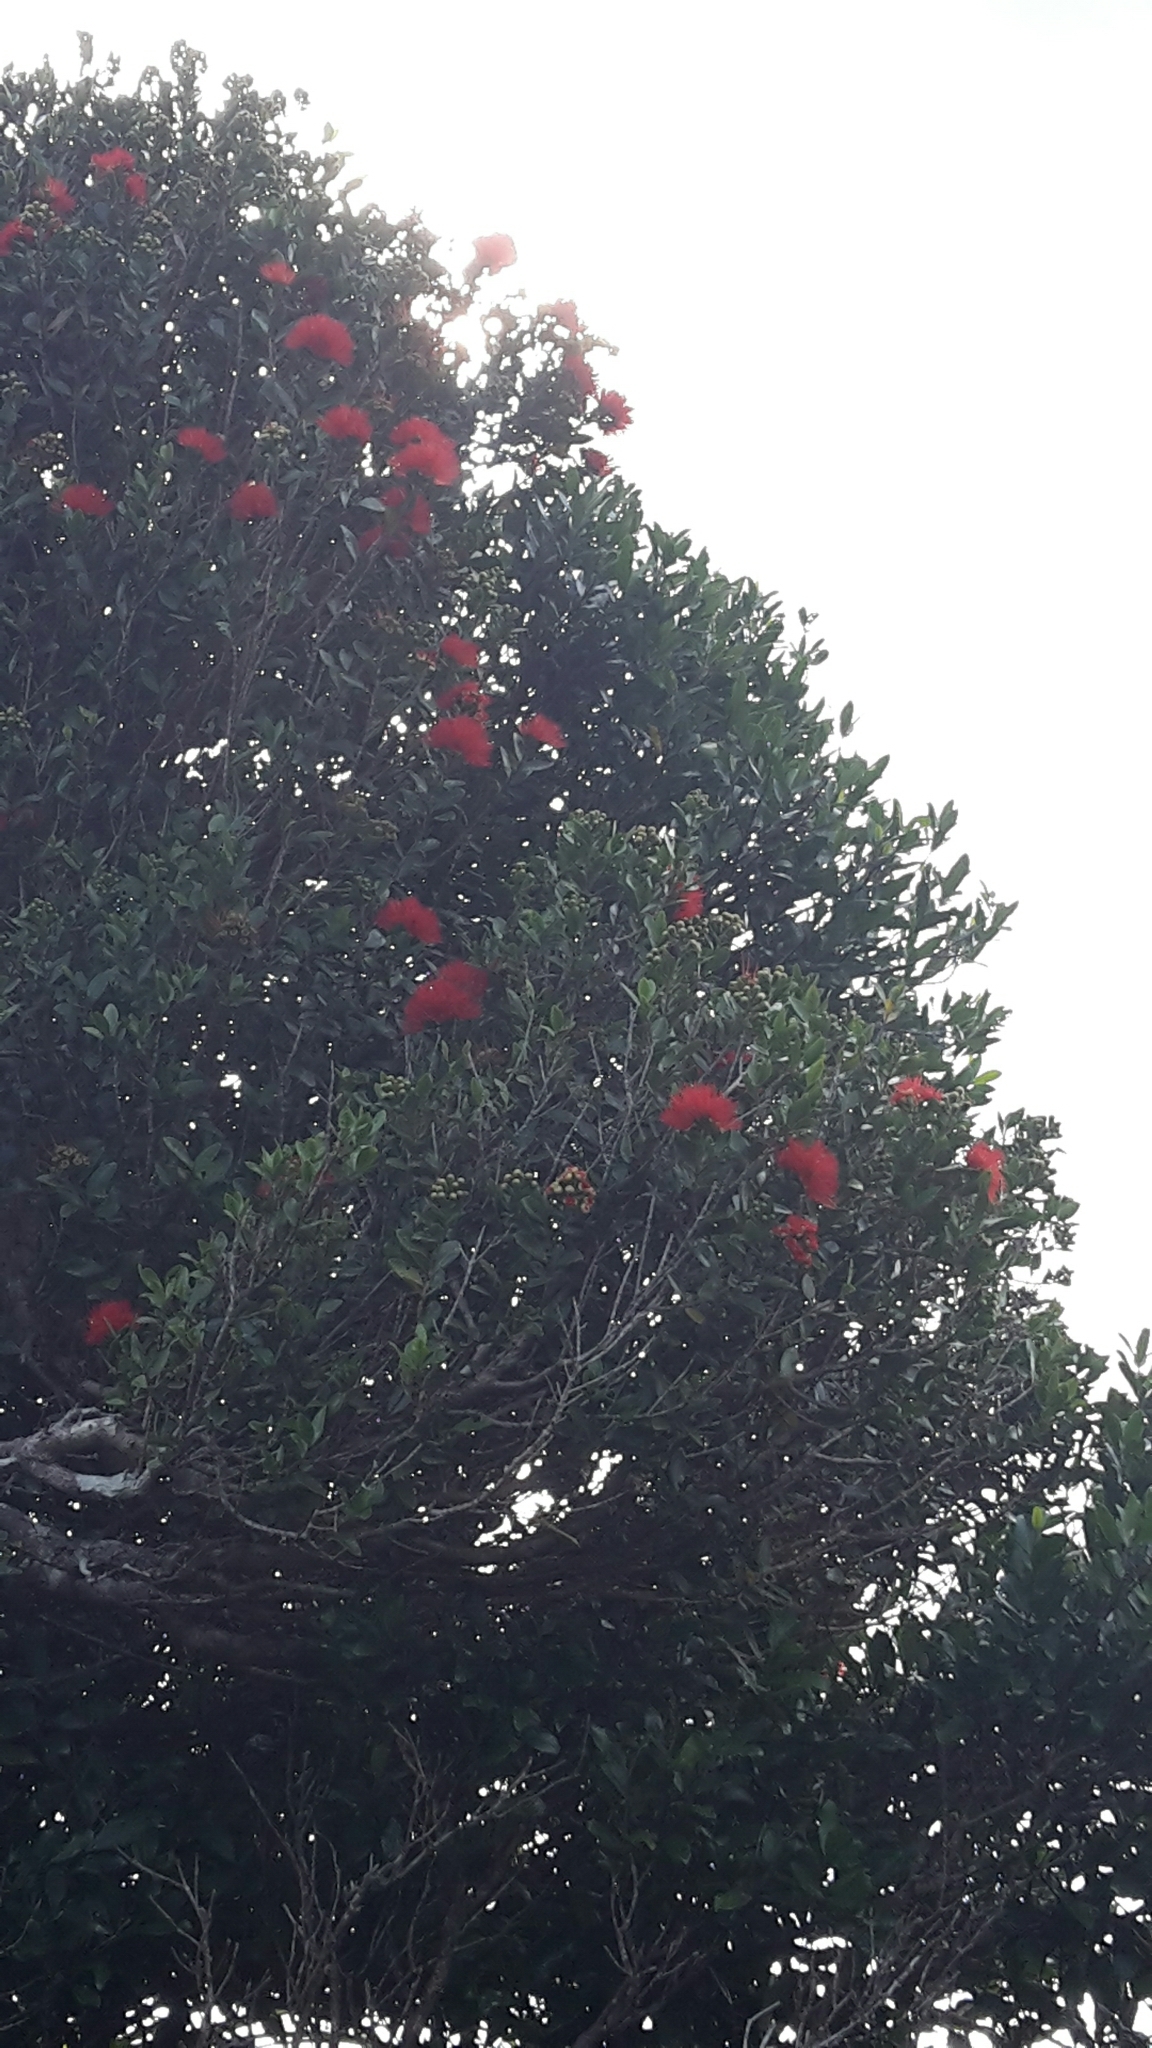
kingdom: Plantae
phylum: Tracheophyta
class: Magnoliopsida
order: Myrtales
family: Myrtaceae
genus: Metrosideros
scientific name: Metrosideros fulgens
